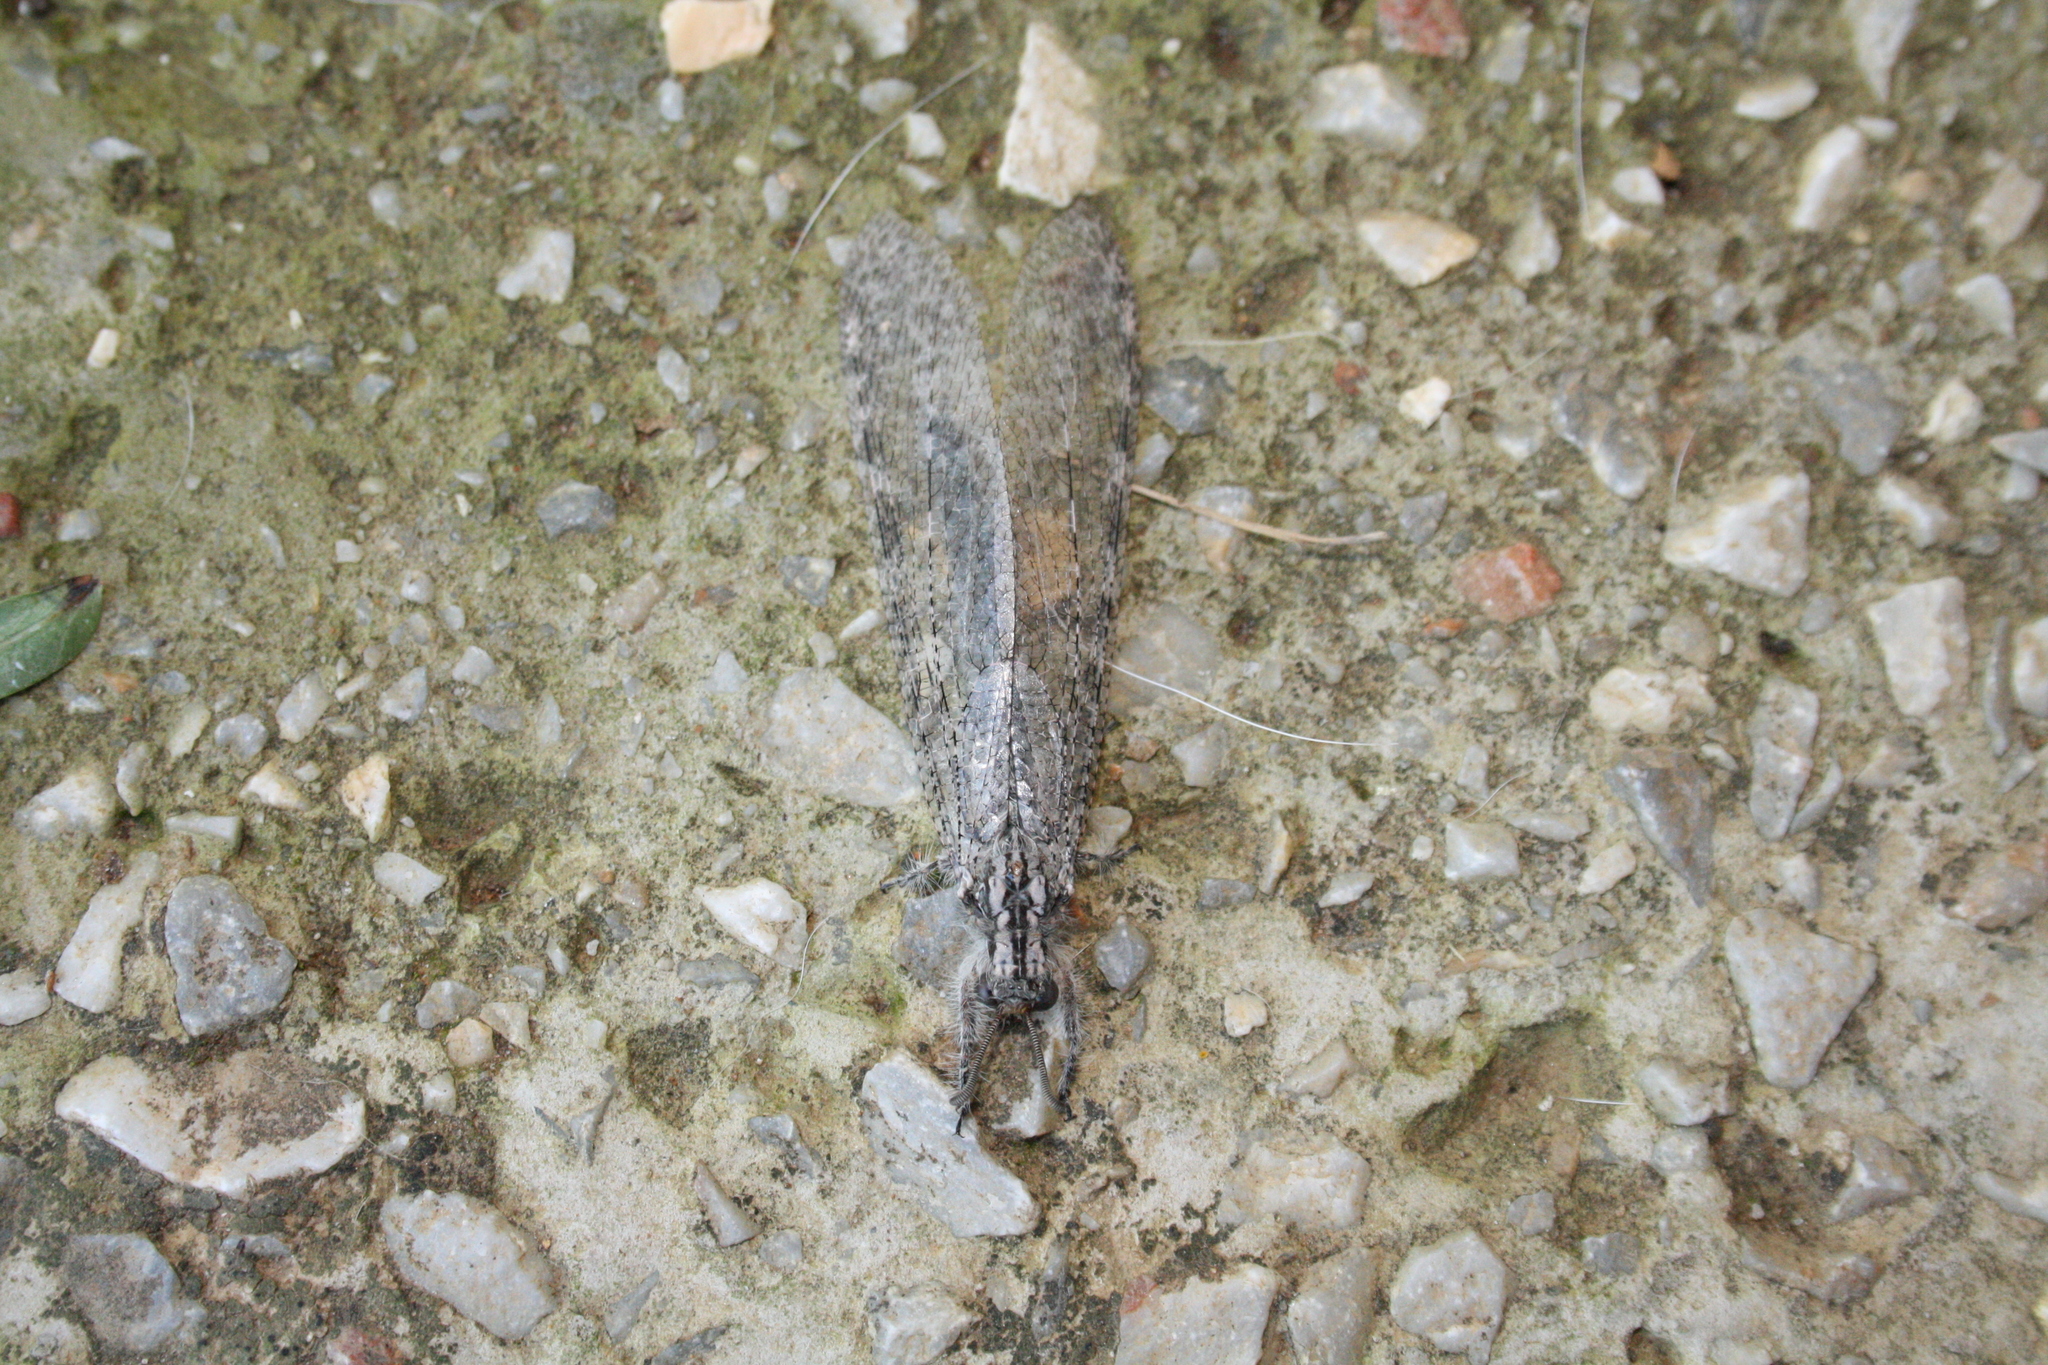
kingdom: Animalia
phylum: Arthropoda
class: Insecta
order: Neuroptera
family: Myrmeleontidae
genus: Synclisis
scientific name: Synclisis baetica
